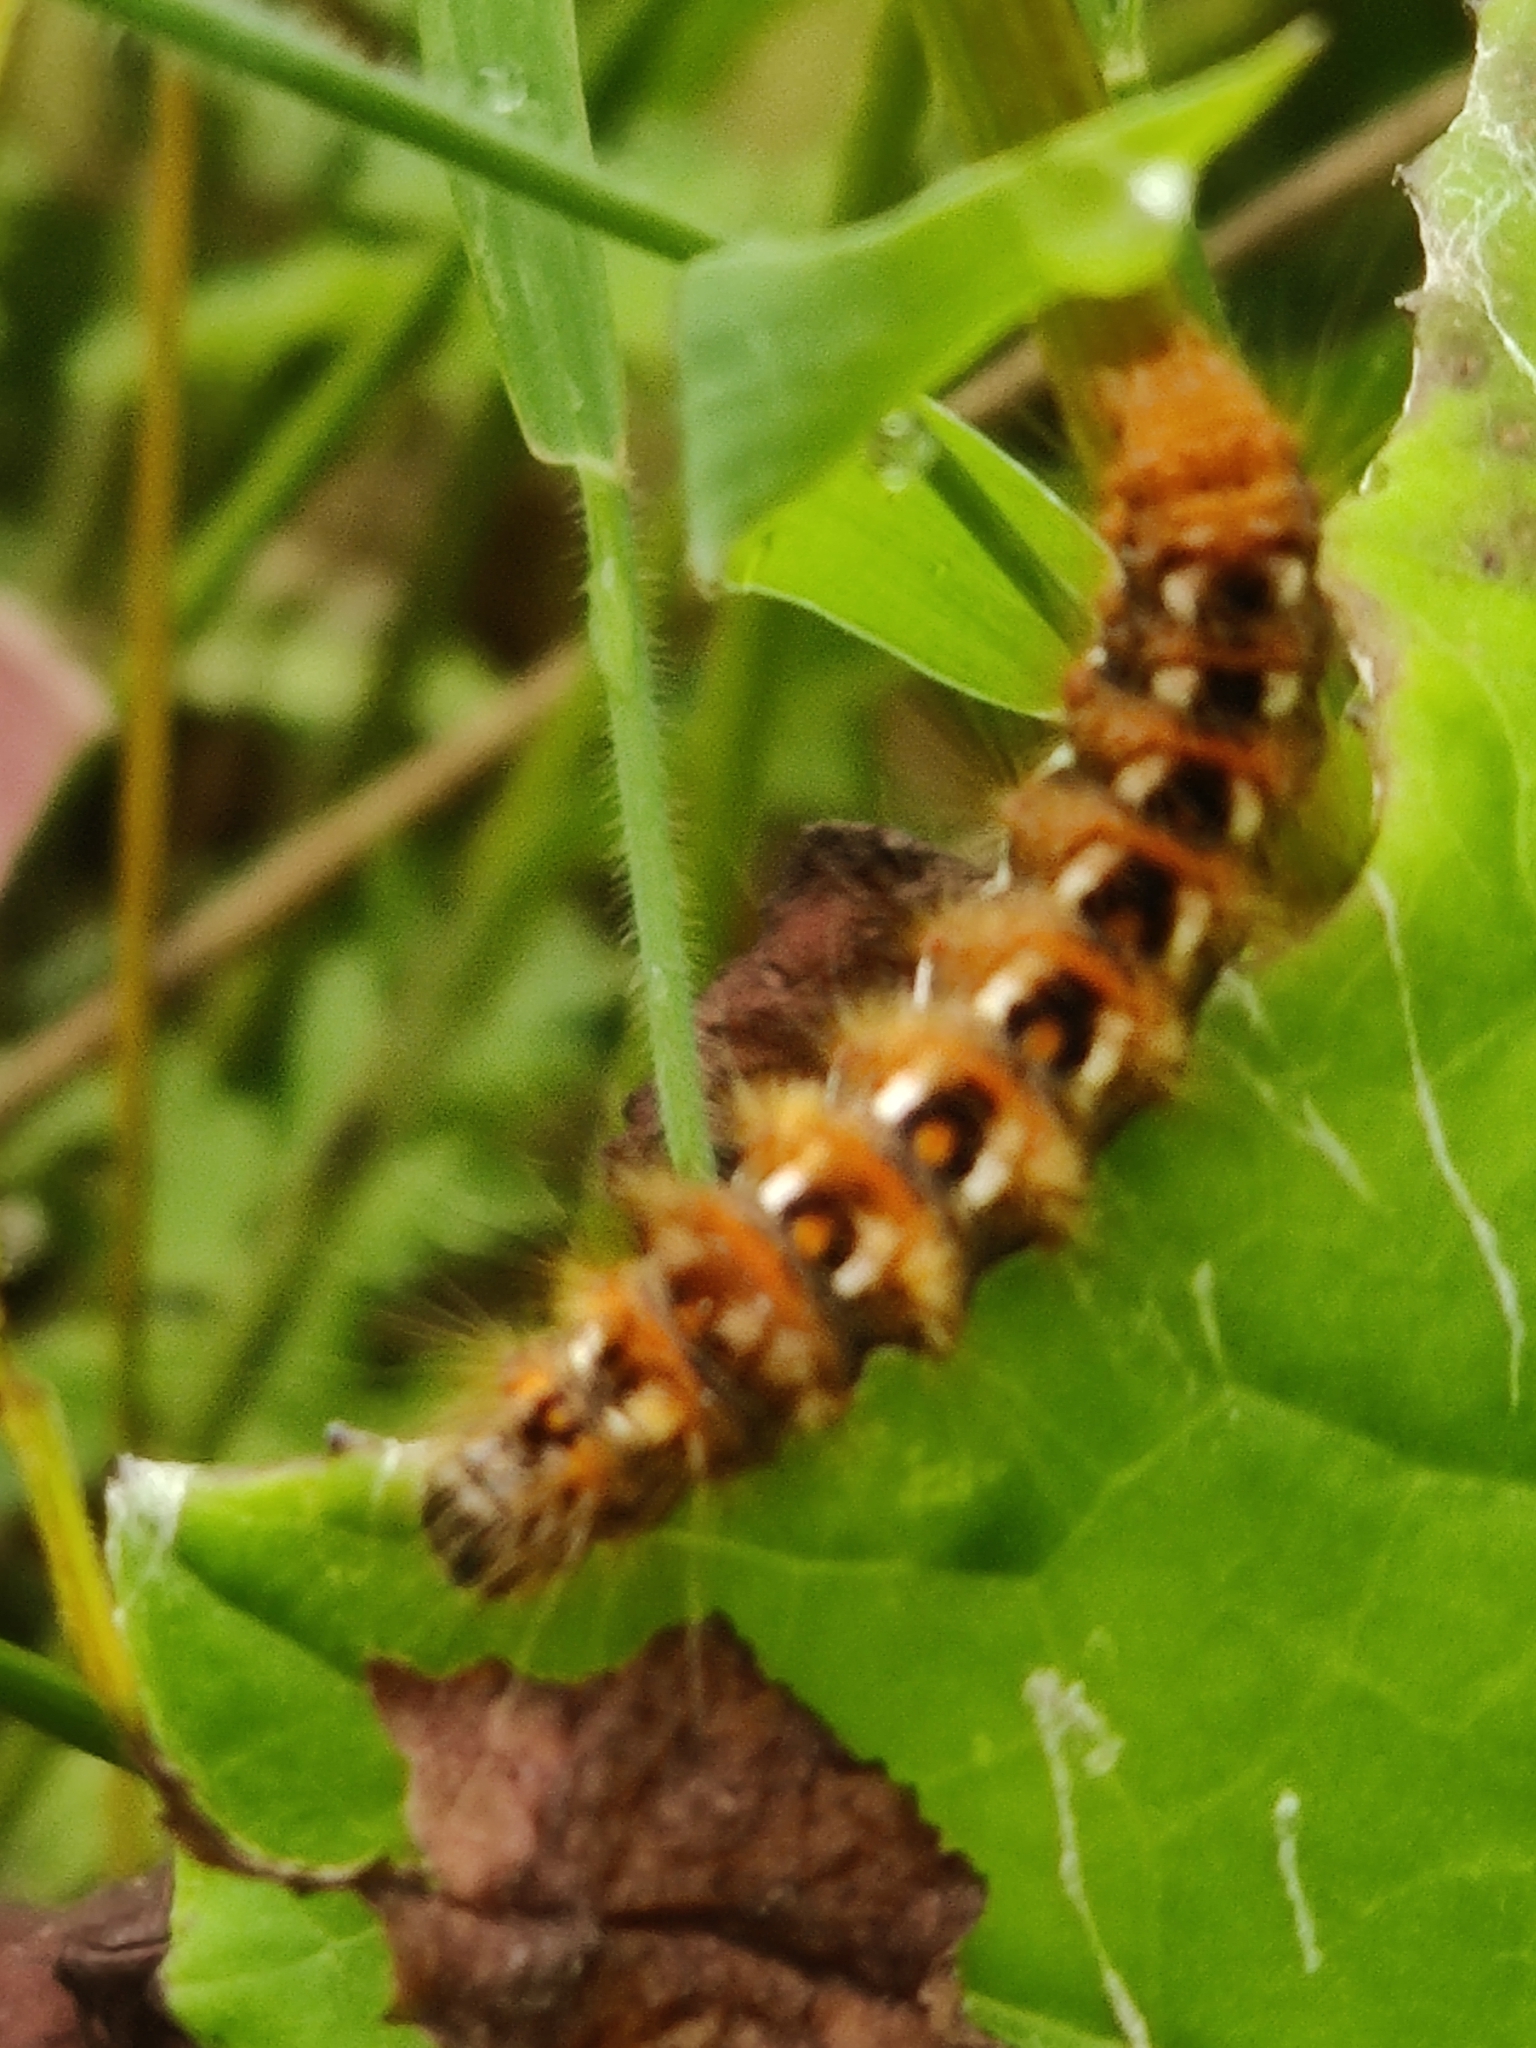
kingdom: Animalia
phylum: Arthropoda
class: Insecta
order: Lepidoptera
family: Noctuidae
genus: Acronicta
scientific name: Acronicta rumicis
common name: Knot grass
